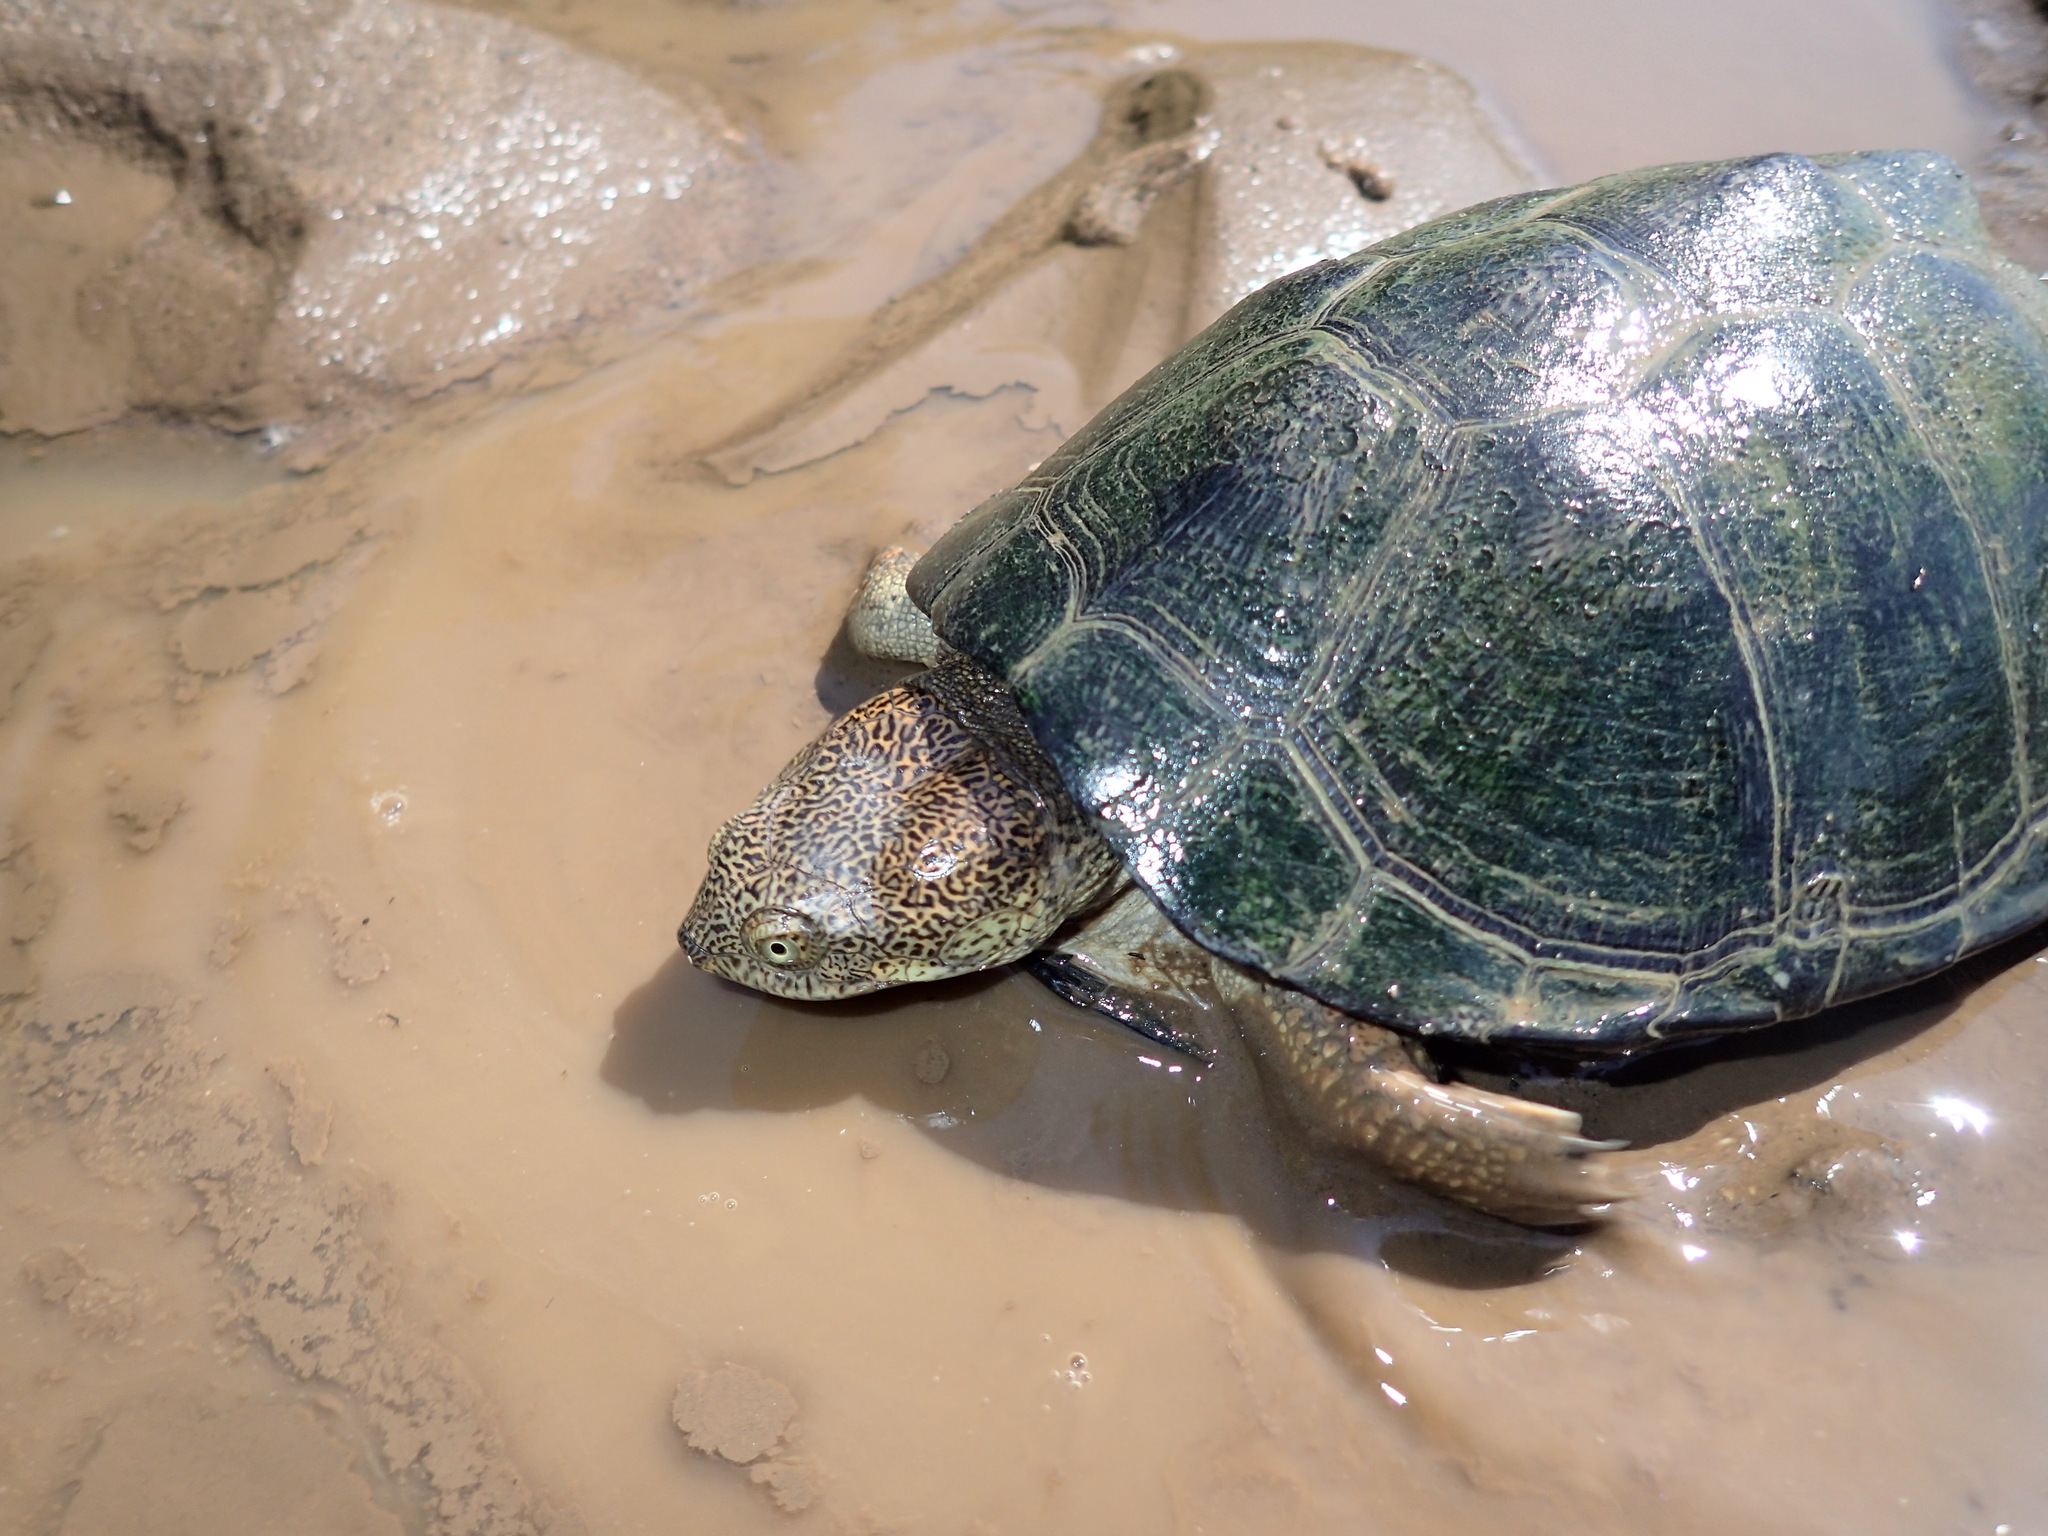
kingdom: Animalia
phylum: Chordata
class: Testudines
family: Pelomedusidae
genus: Pelusios
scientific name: Pelusios sinuatus
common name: Serrated hinged terrapin
